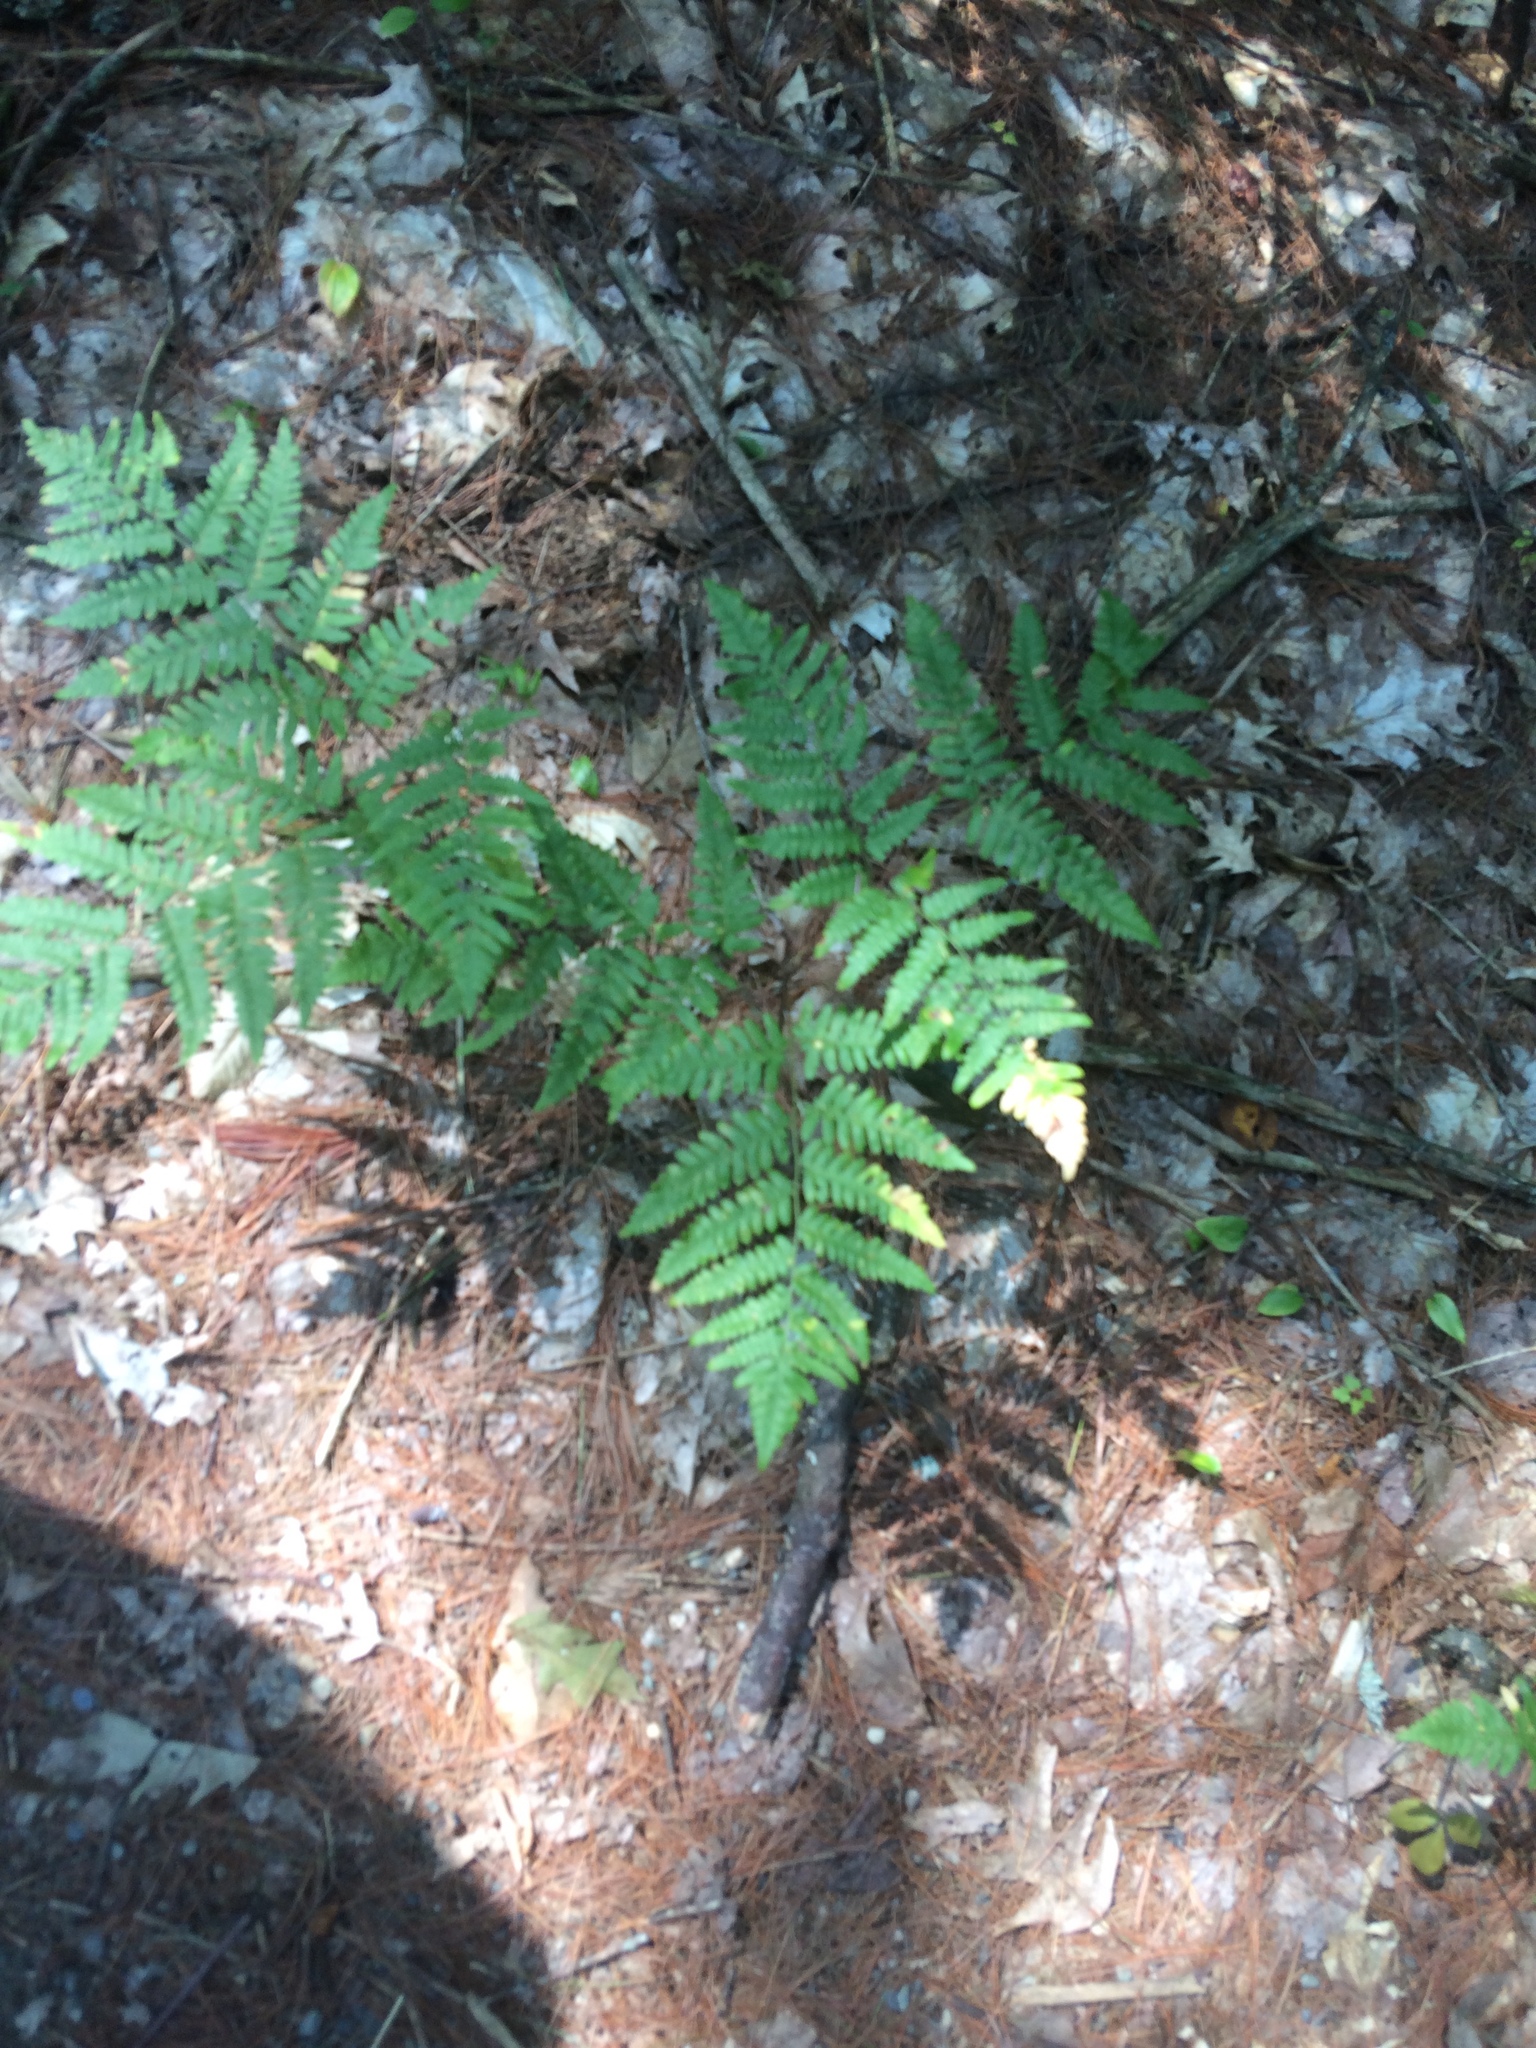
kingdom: Plantae
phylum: Tracheophyta
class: Polypodiopsida
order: Polypodiales
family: Dennstaedtiaceae
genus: Pteridium
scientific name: Pteridium aquilinum
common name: Bracken
